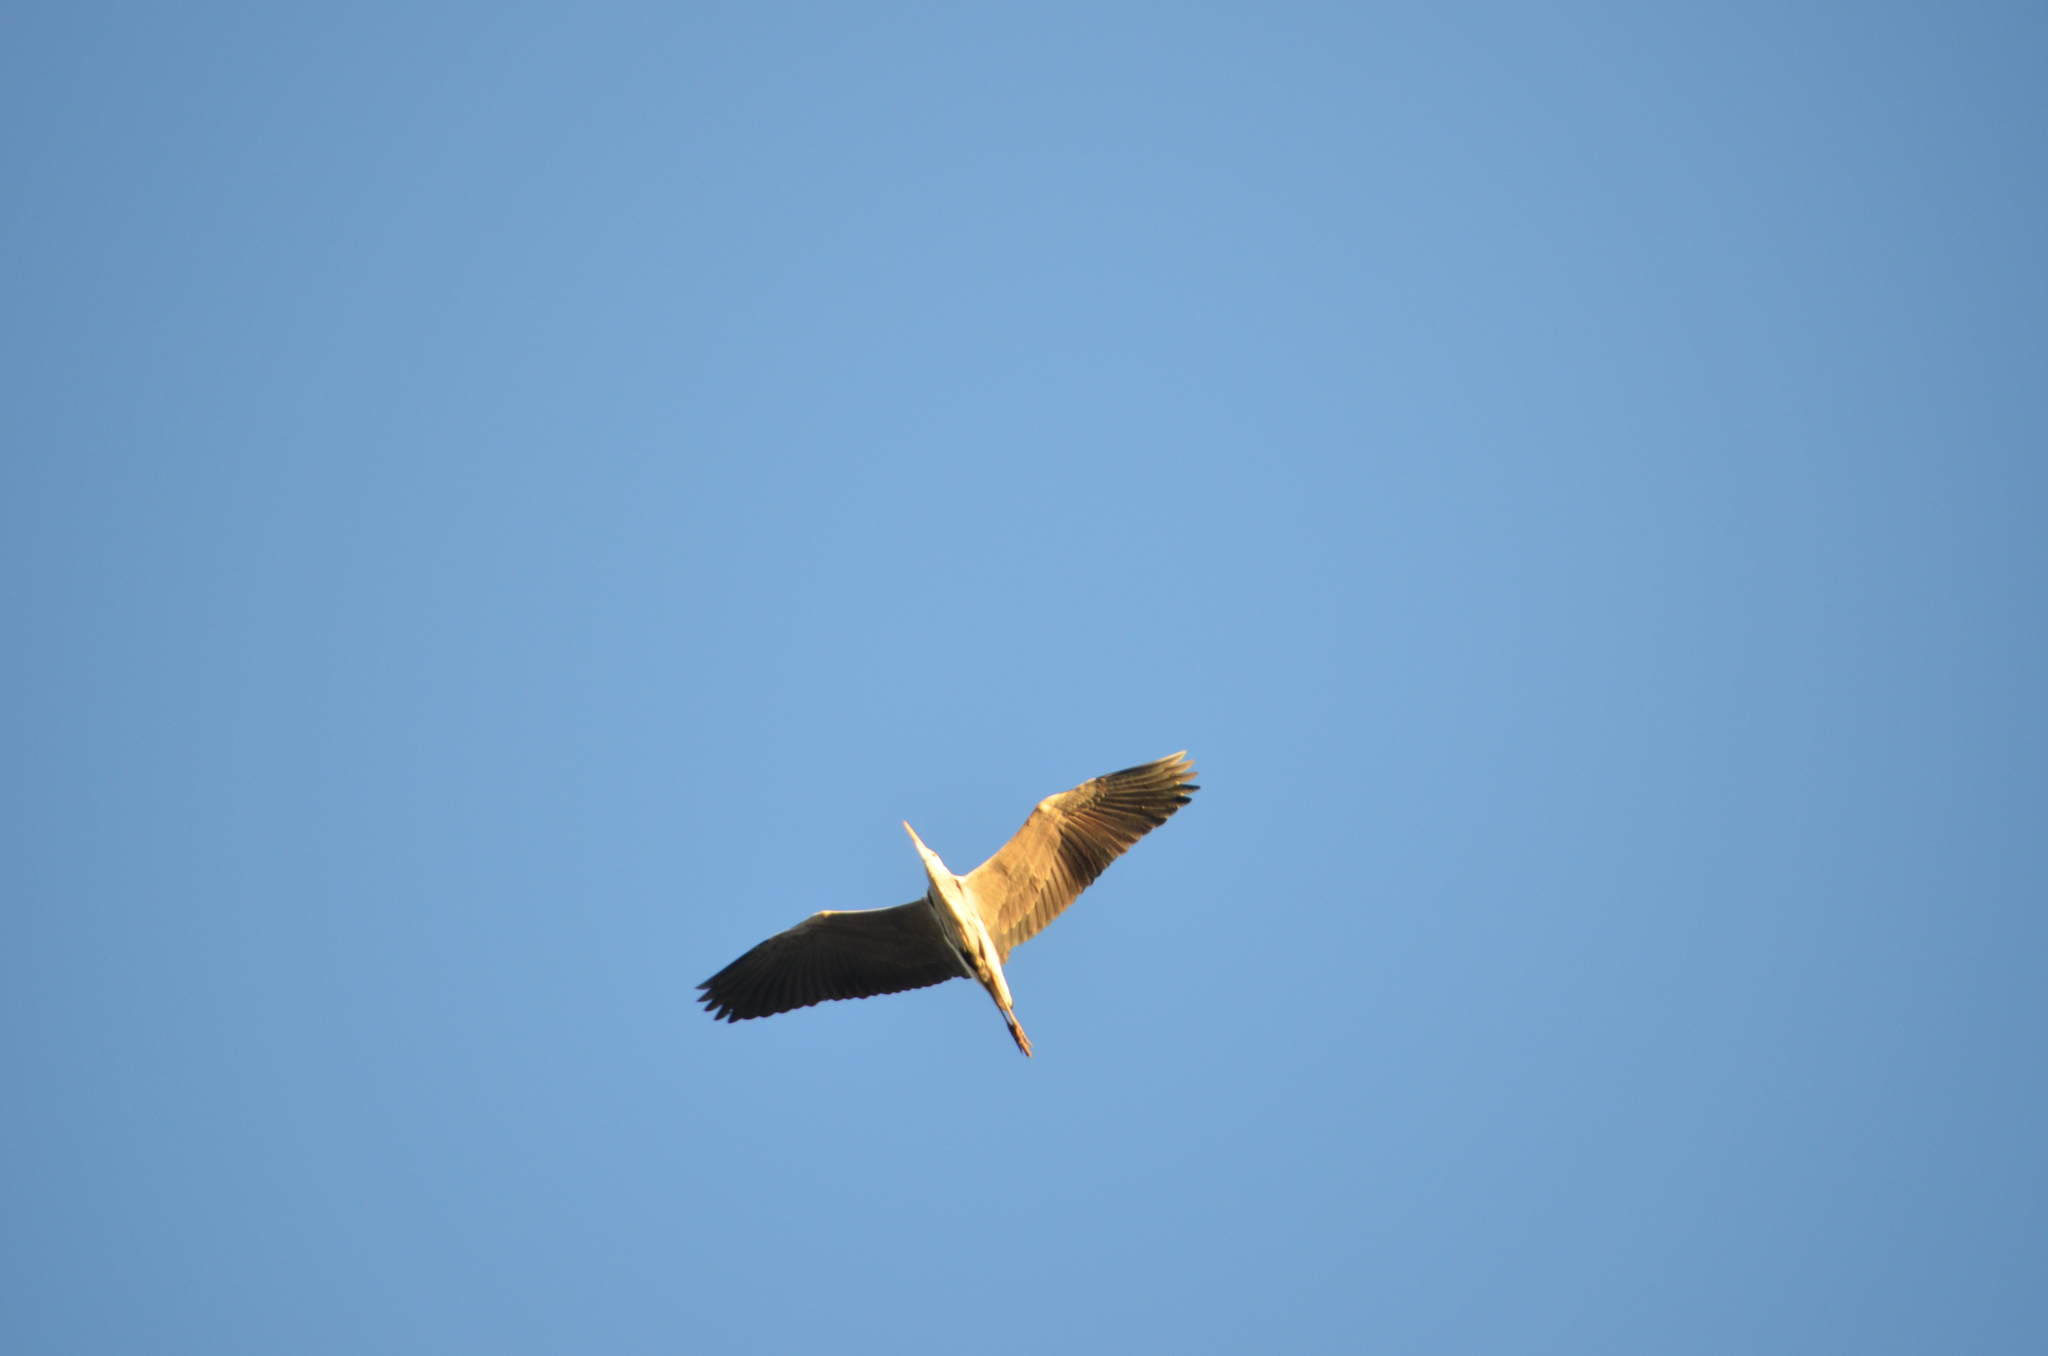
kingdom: Animalia
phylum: Chordata
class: Aves
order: Pelecaniformes
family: Ardeidae
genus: Ardea
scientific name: Ardea cinerea
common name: Grey heron
